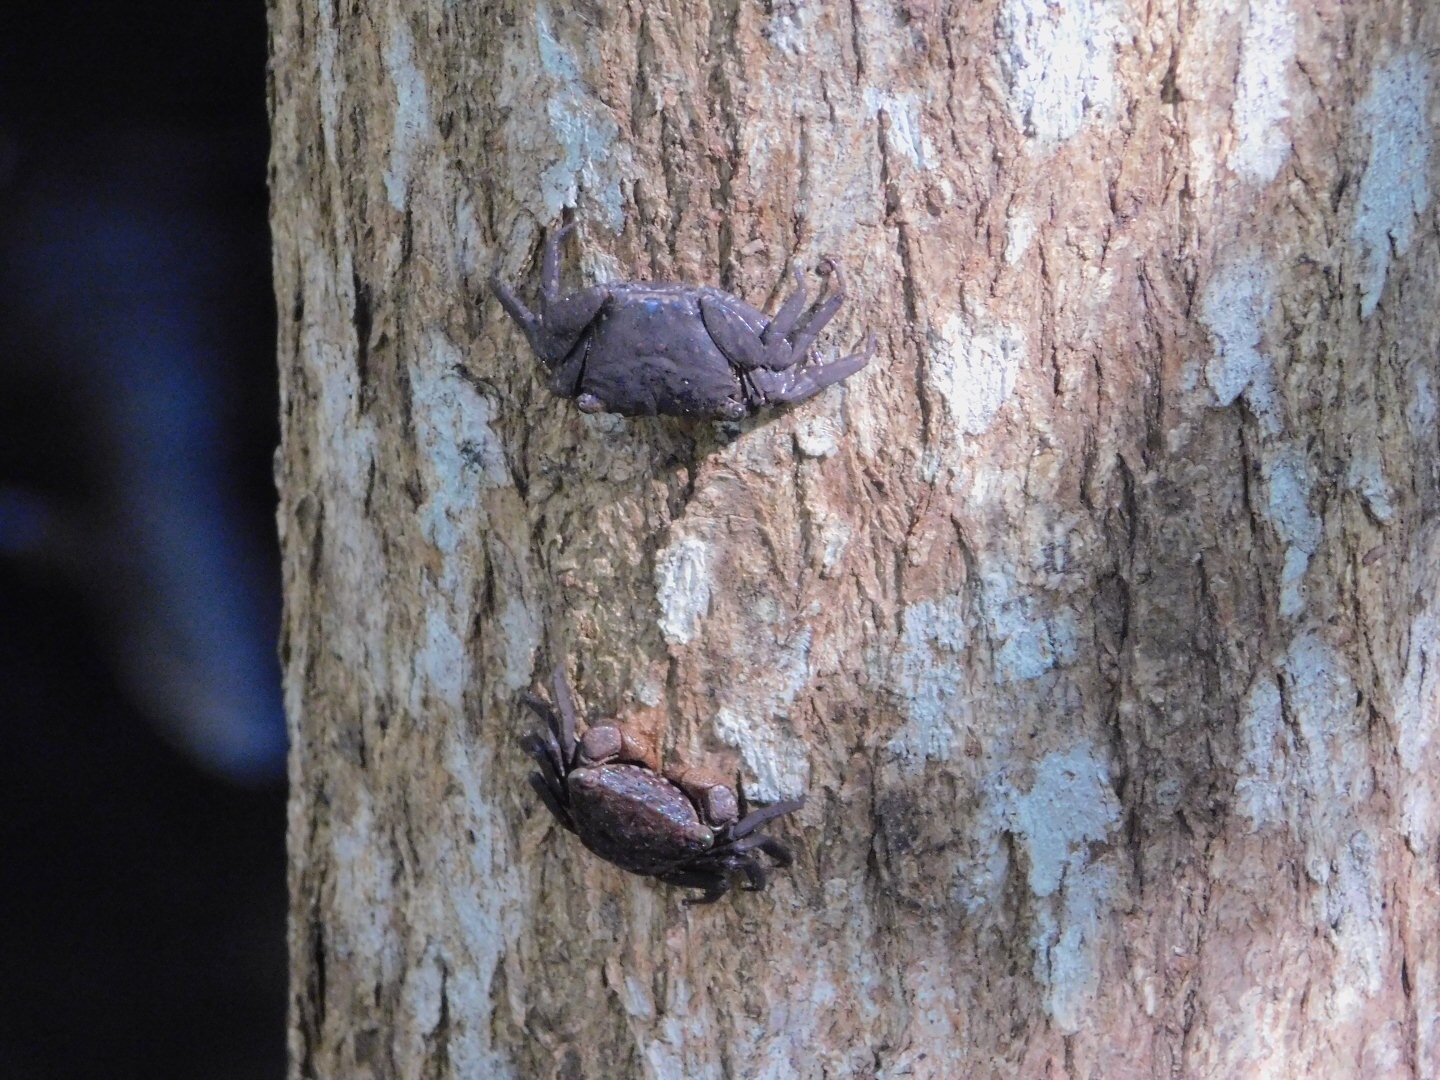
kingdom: Animalia
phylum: Arthropoda
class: Malacostraca
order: Decapoda
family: Sesarmidae
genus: Aratus
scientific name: Aratus pisonii
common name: Mangrove crab
